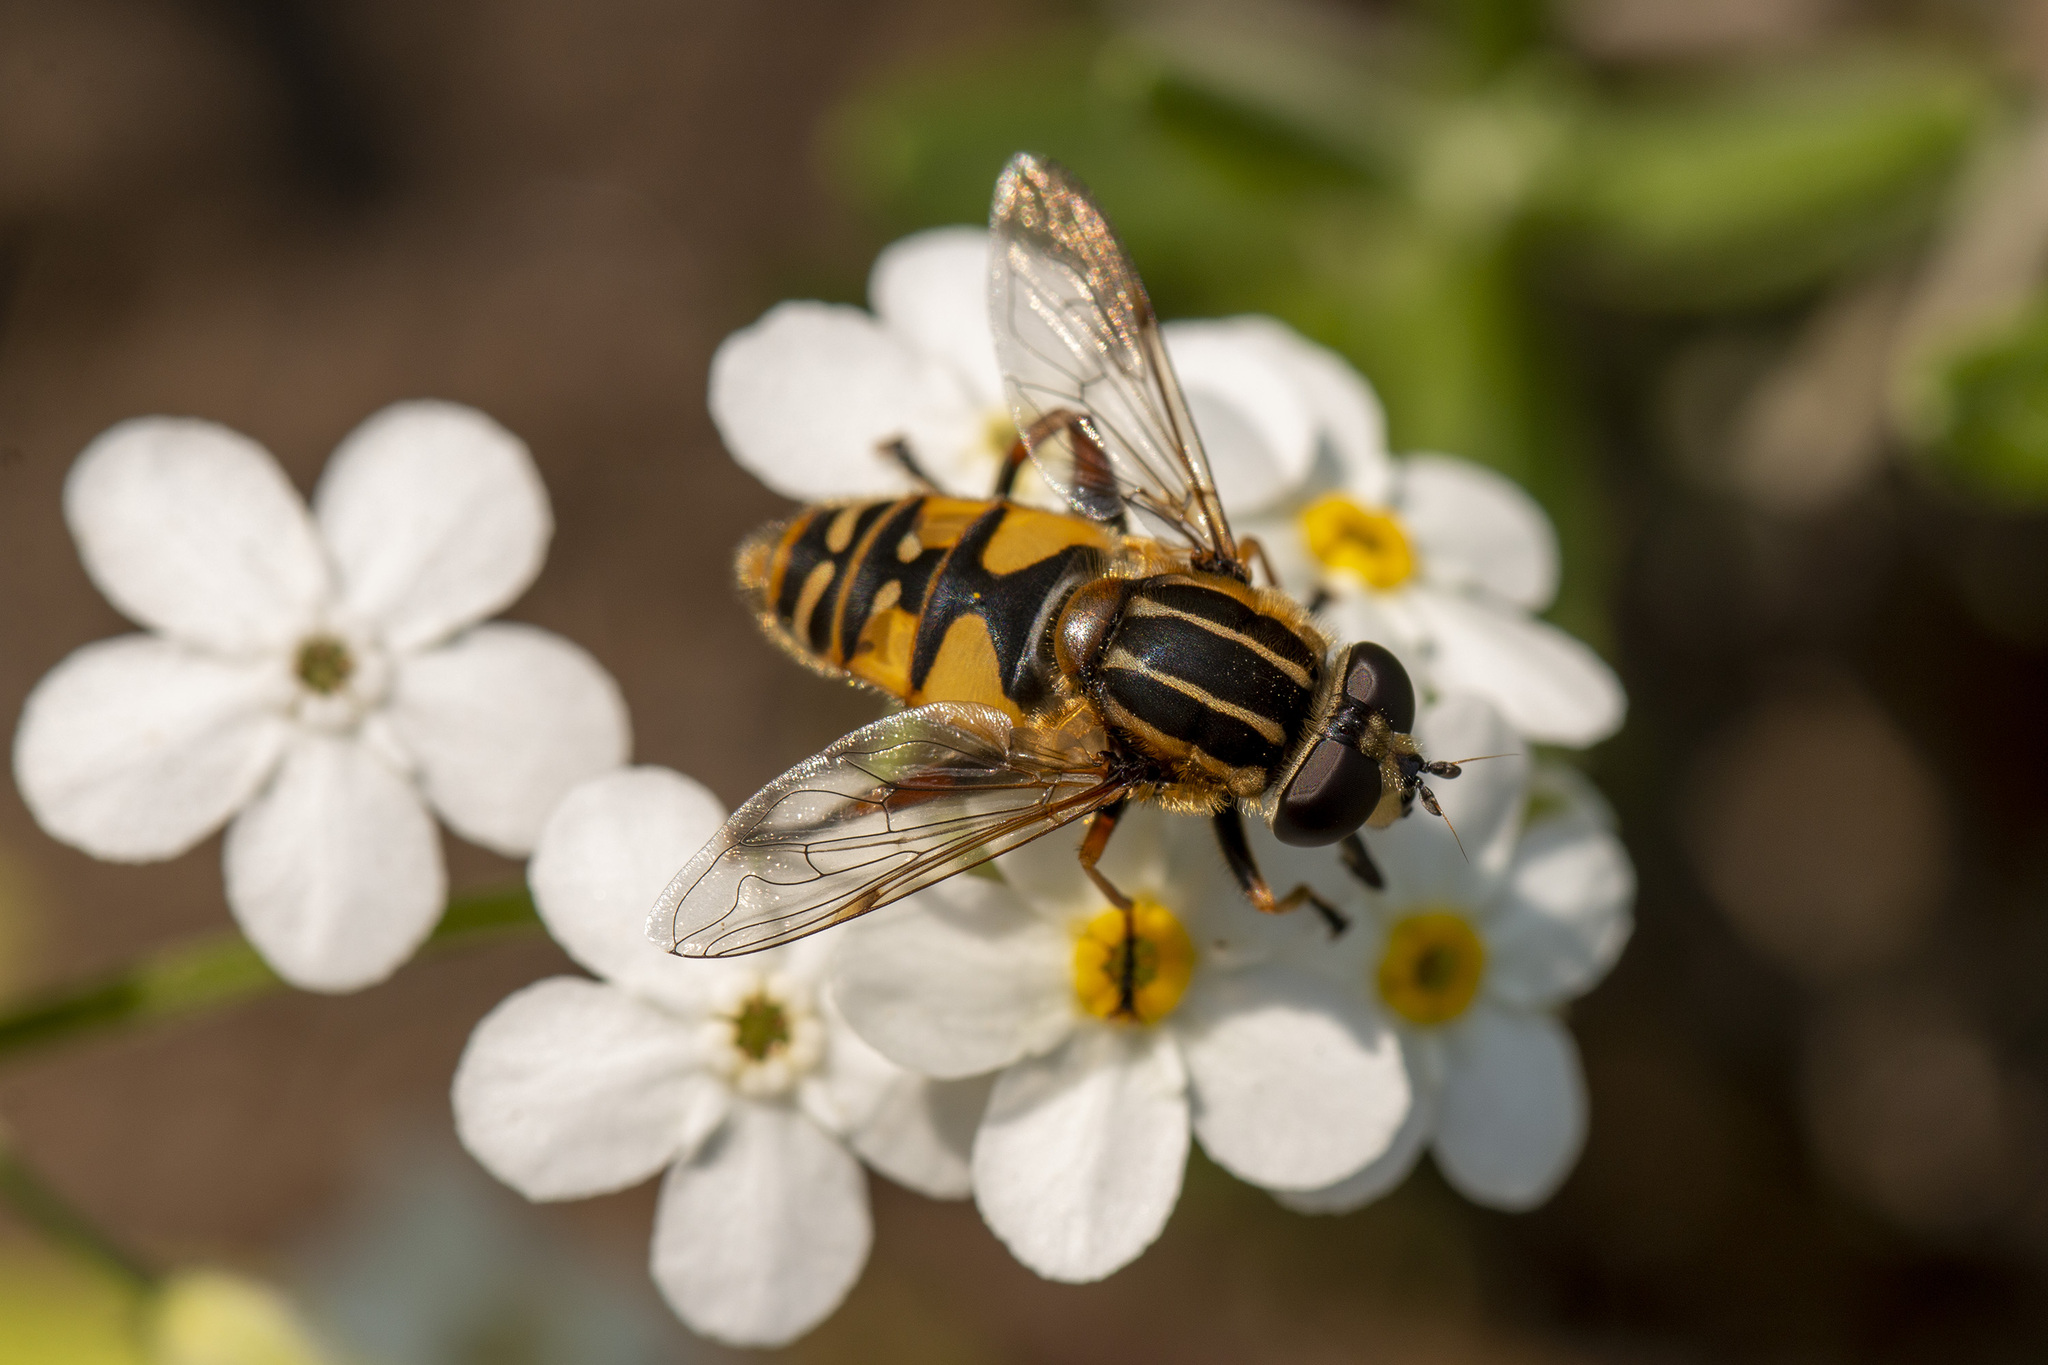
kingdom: Animalia
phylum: Arthropoda
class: Insecta
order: Diptera
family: Syrphidae
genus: Helophilus
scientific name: Helophilus pendulus
